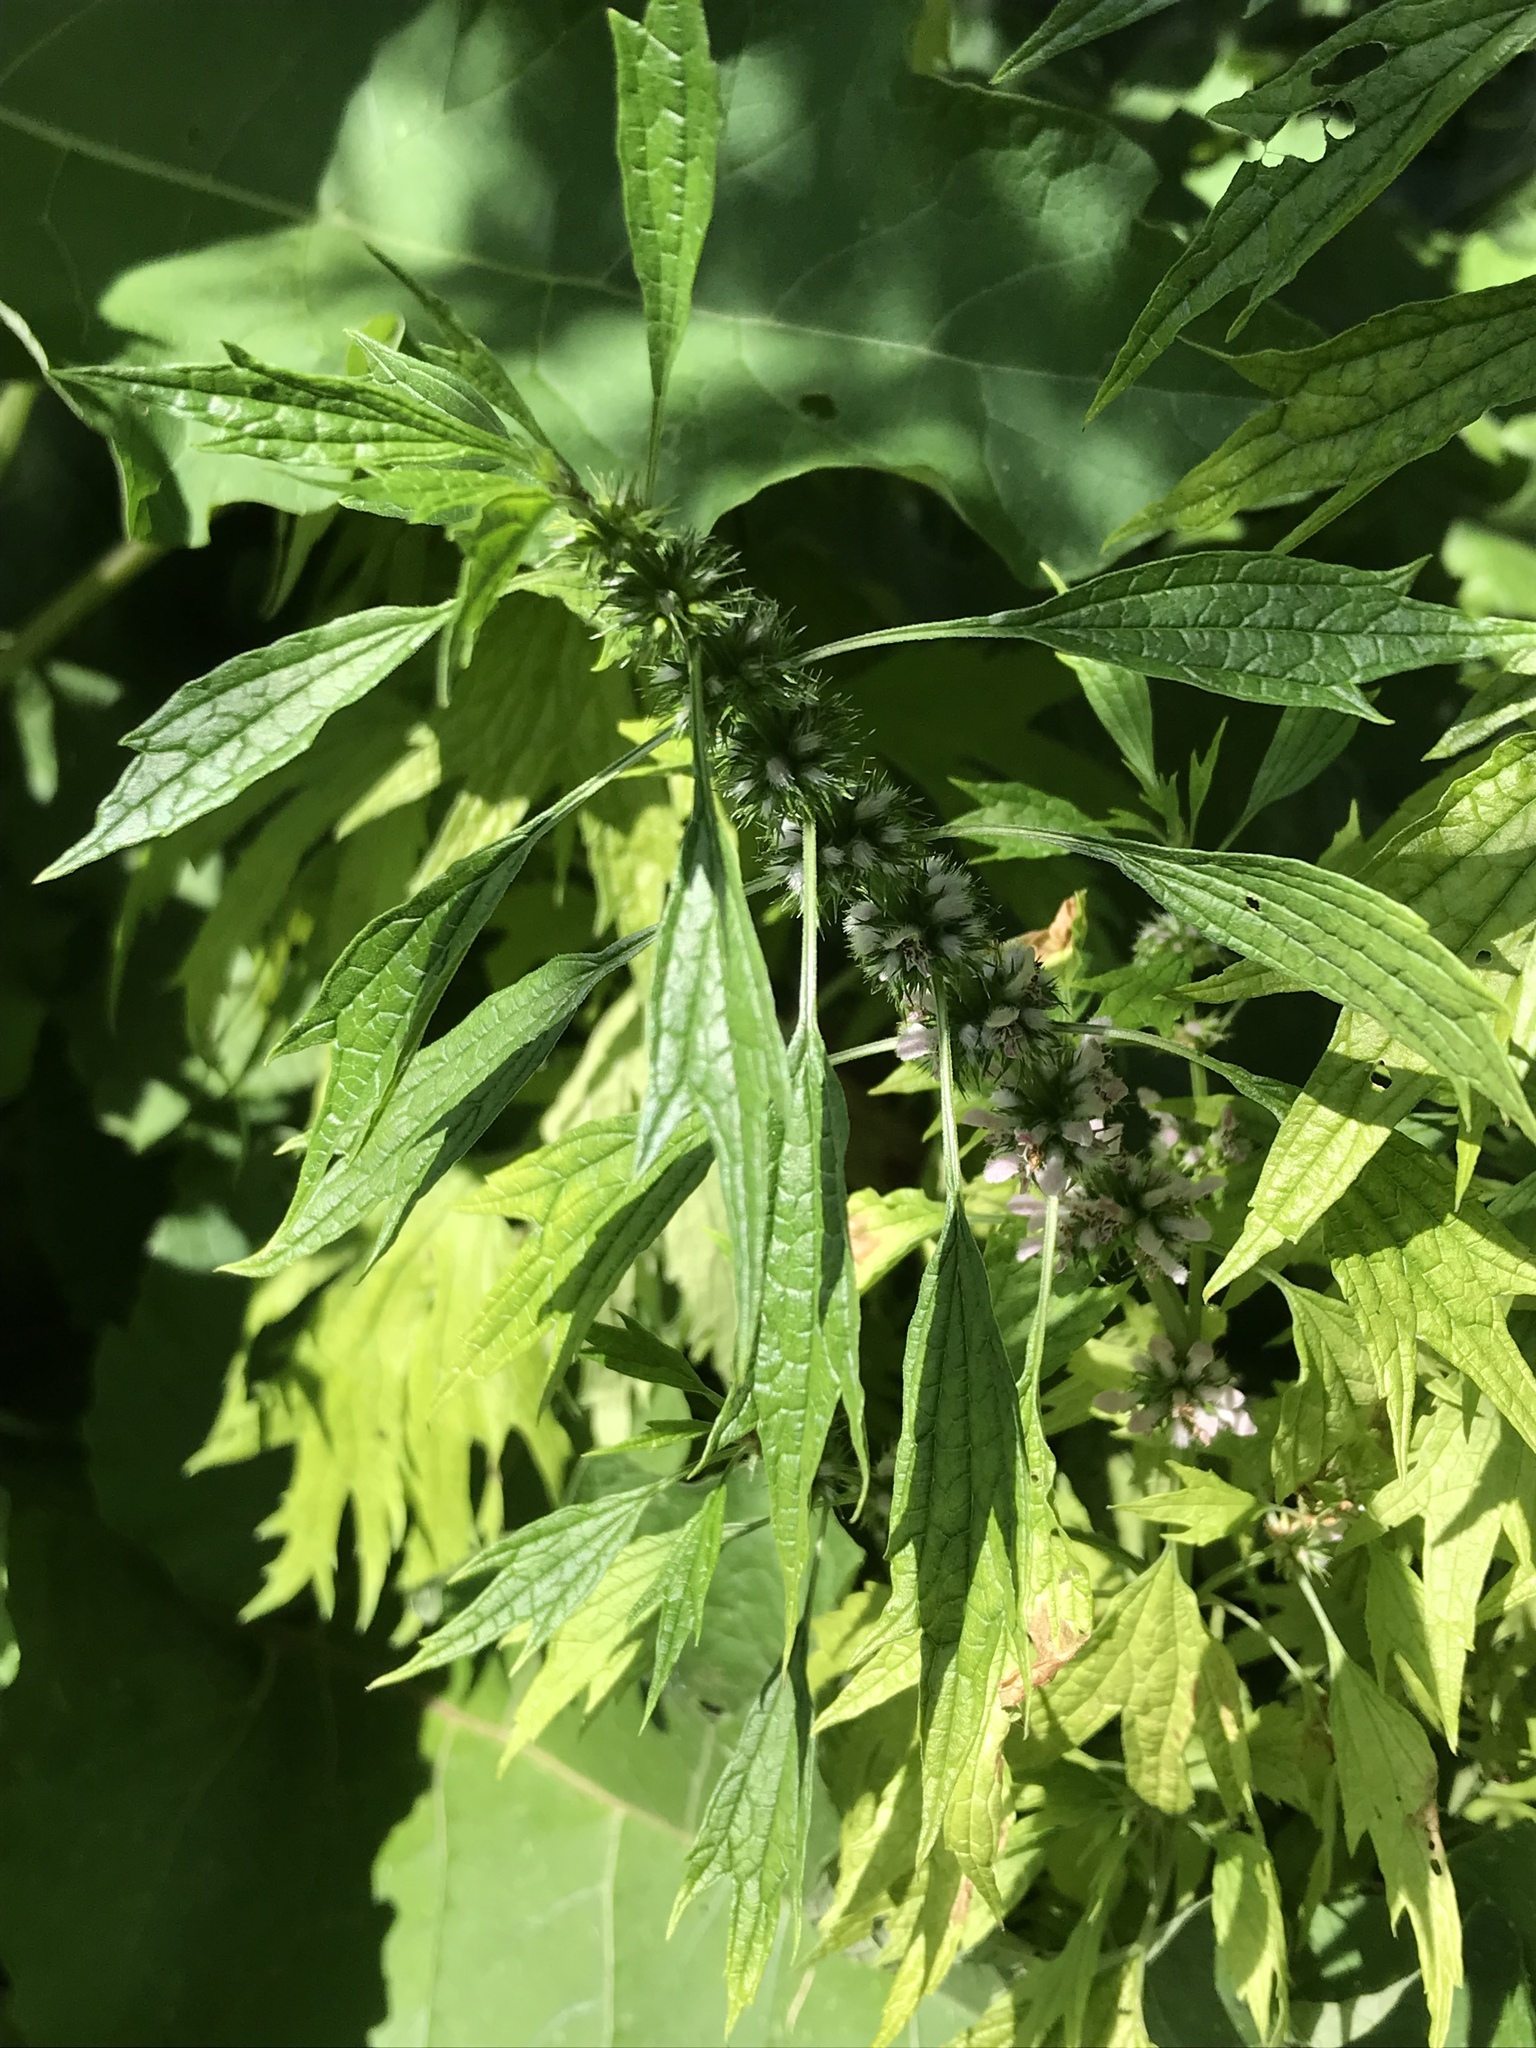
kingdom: Plantae
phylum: Tracheophyta
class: Magnoliopsida
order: Lamiales
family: Lamiaceae
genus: Leonurus
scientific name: Leonurus cardiaca
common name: Motherwort
